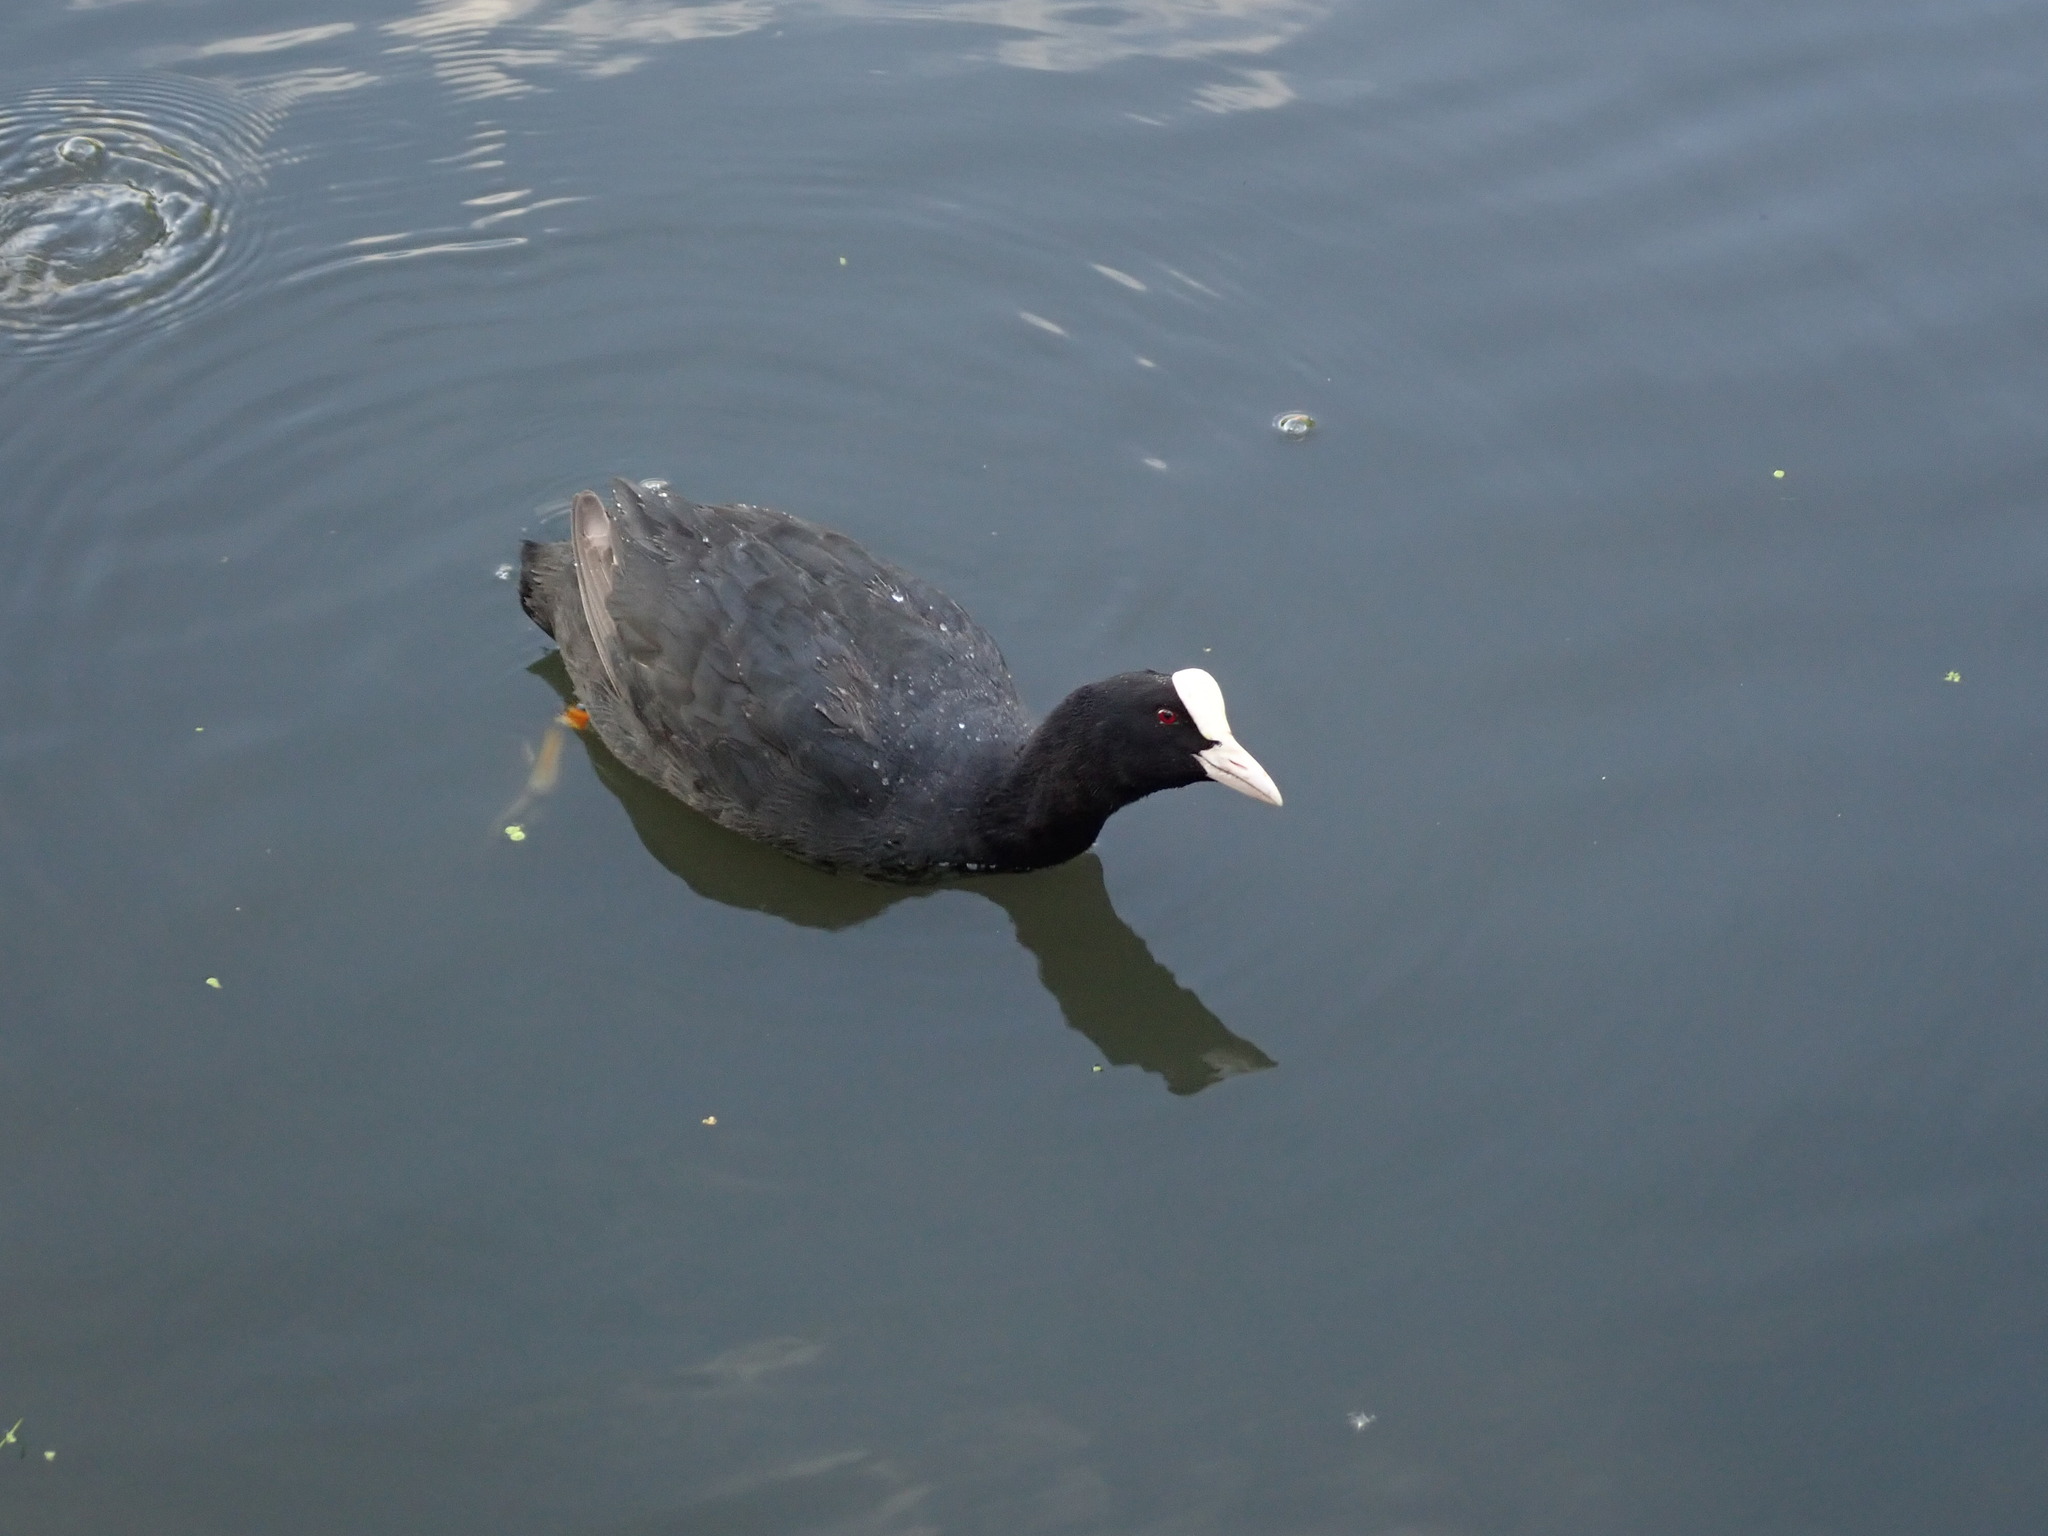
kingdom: Animalia
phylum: Chordata
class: Aves
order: Gruiformes
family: Rallidae
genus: Fulica
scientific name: Fulica atra
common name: Eurasian coot
